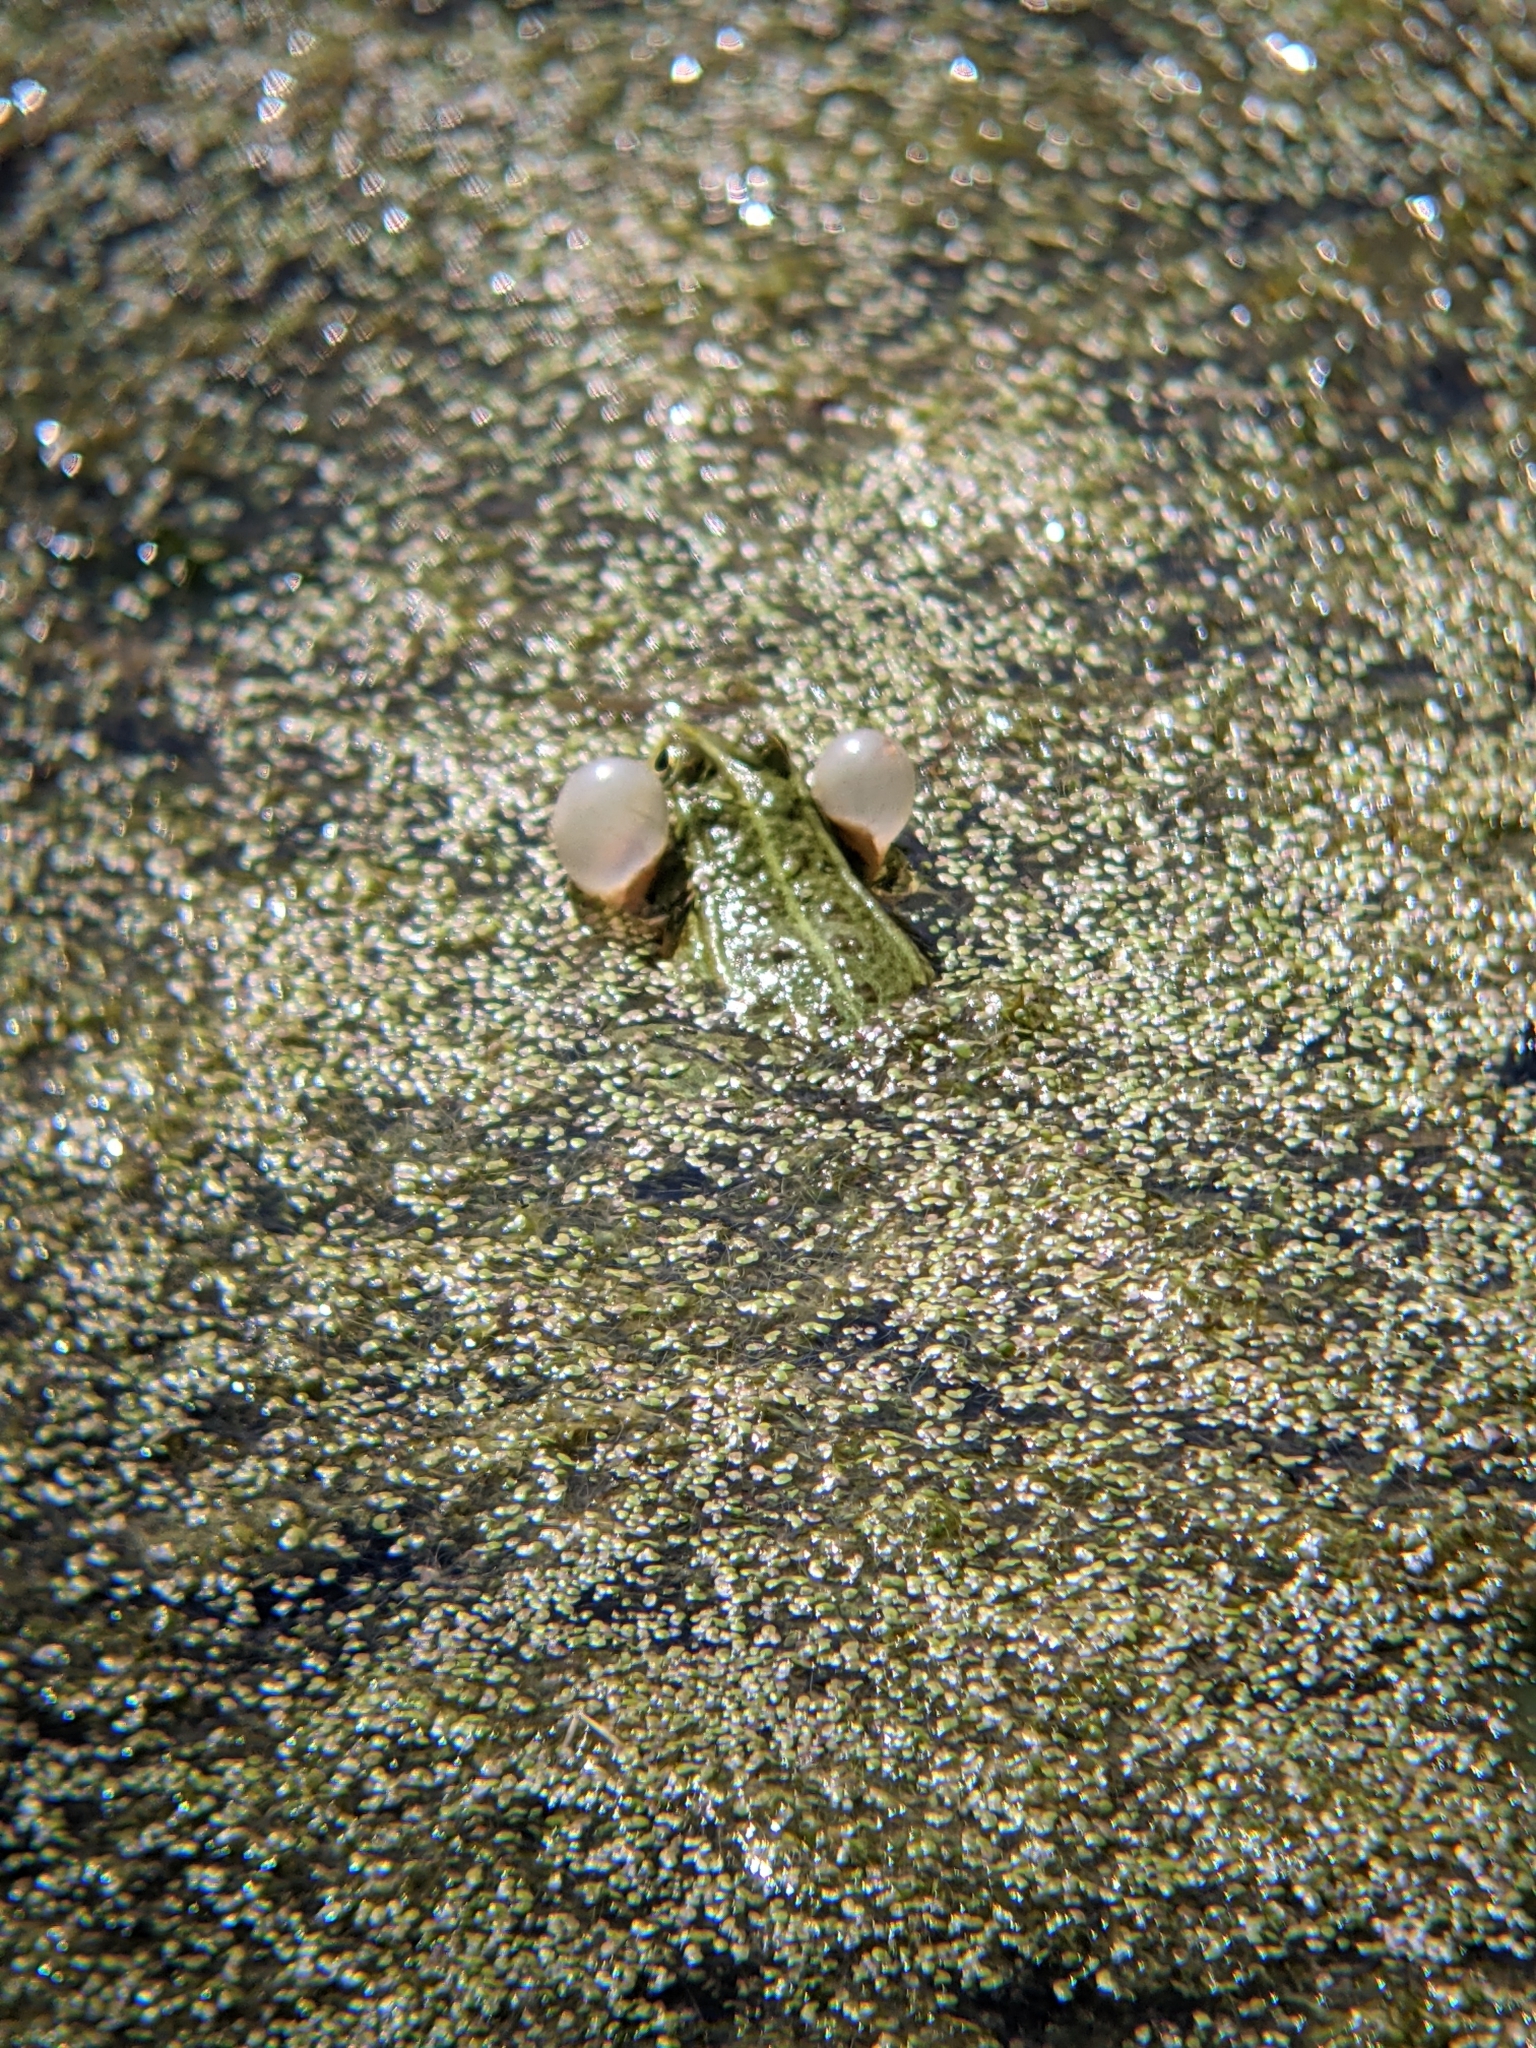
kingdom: Animalia
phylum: Chordata
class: Amphibia
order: Anura
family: Ranidae
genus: Pelophylax
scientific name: Pelophylax
